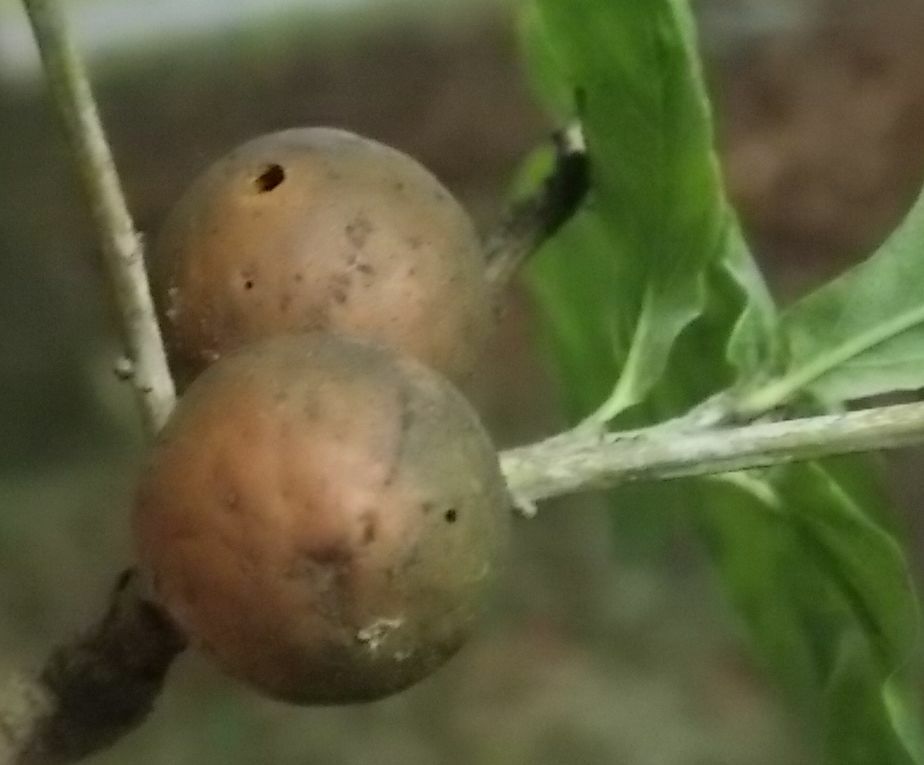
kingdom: Animalia
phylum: Arthropoda
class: Insecta
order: Hymenoptera
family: Cynipidae
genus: Andricus
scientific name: Andricus kollari
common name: Marble gall
